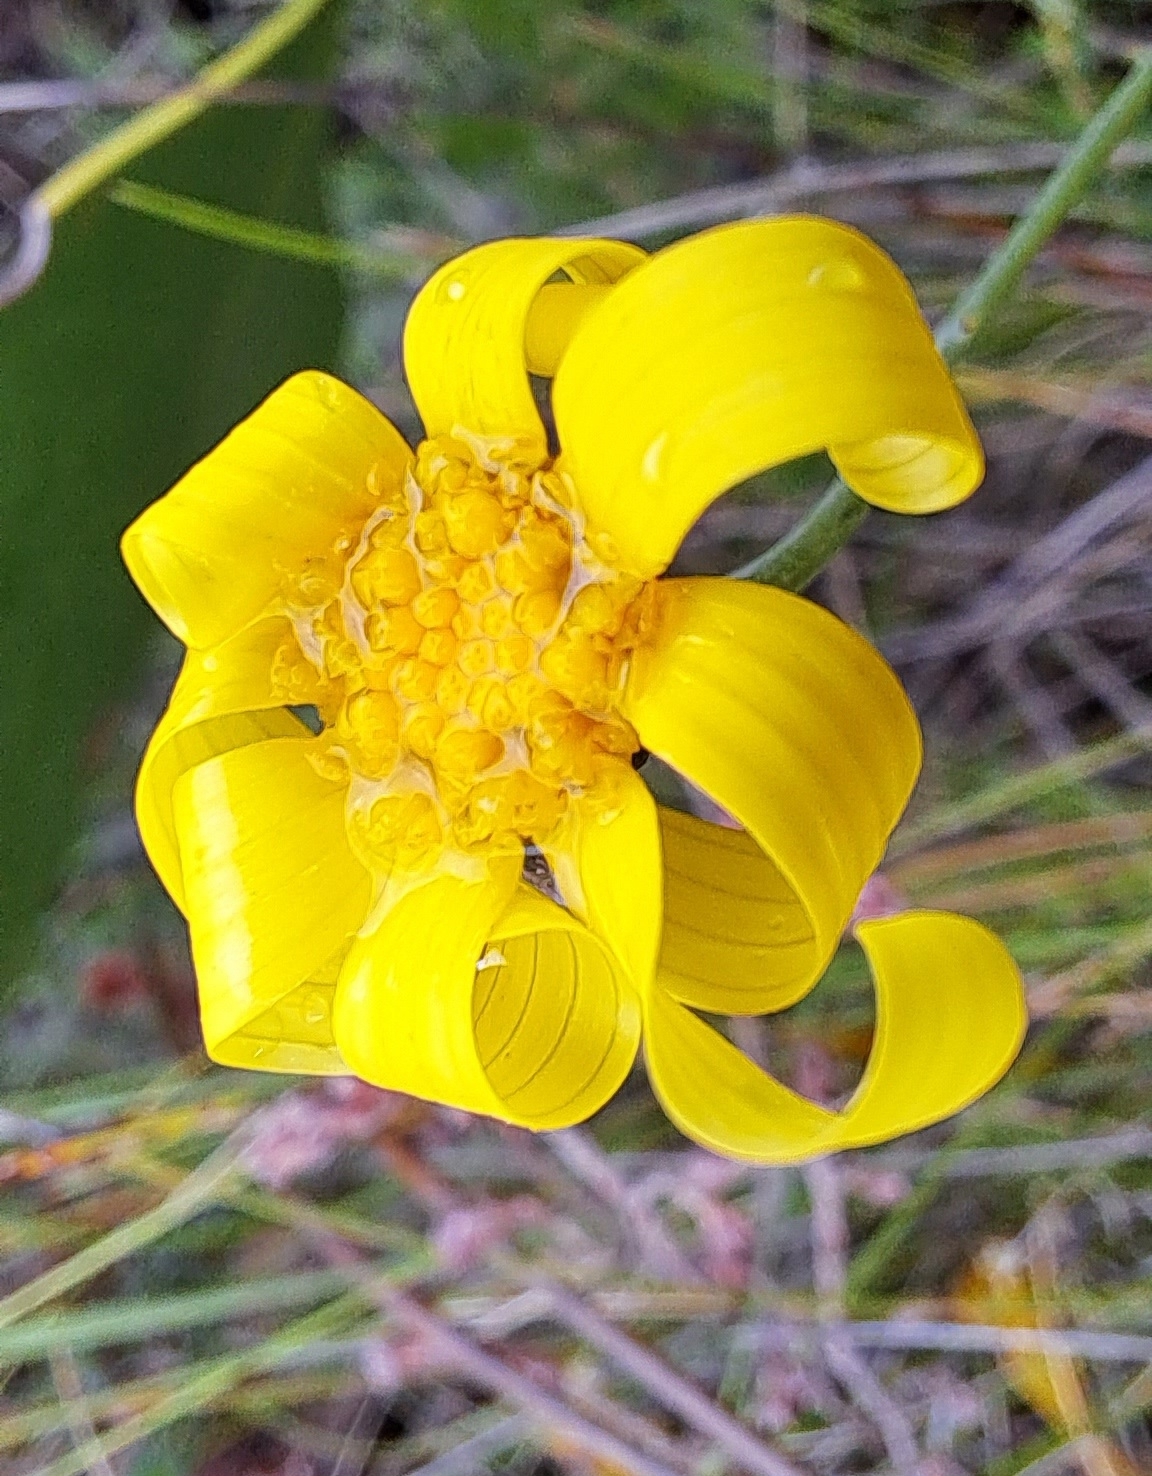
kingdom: Plantae
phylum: Tracheophyta
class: Magnoliopsida
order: Asterales
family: Asteraceae
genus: Othonna
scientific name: Othonna quinquedentata
